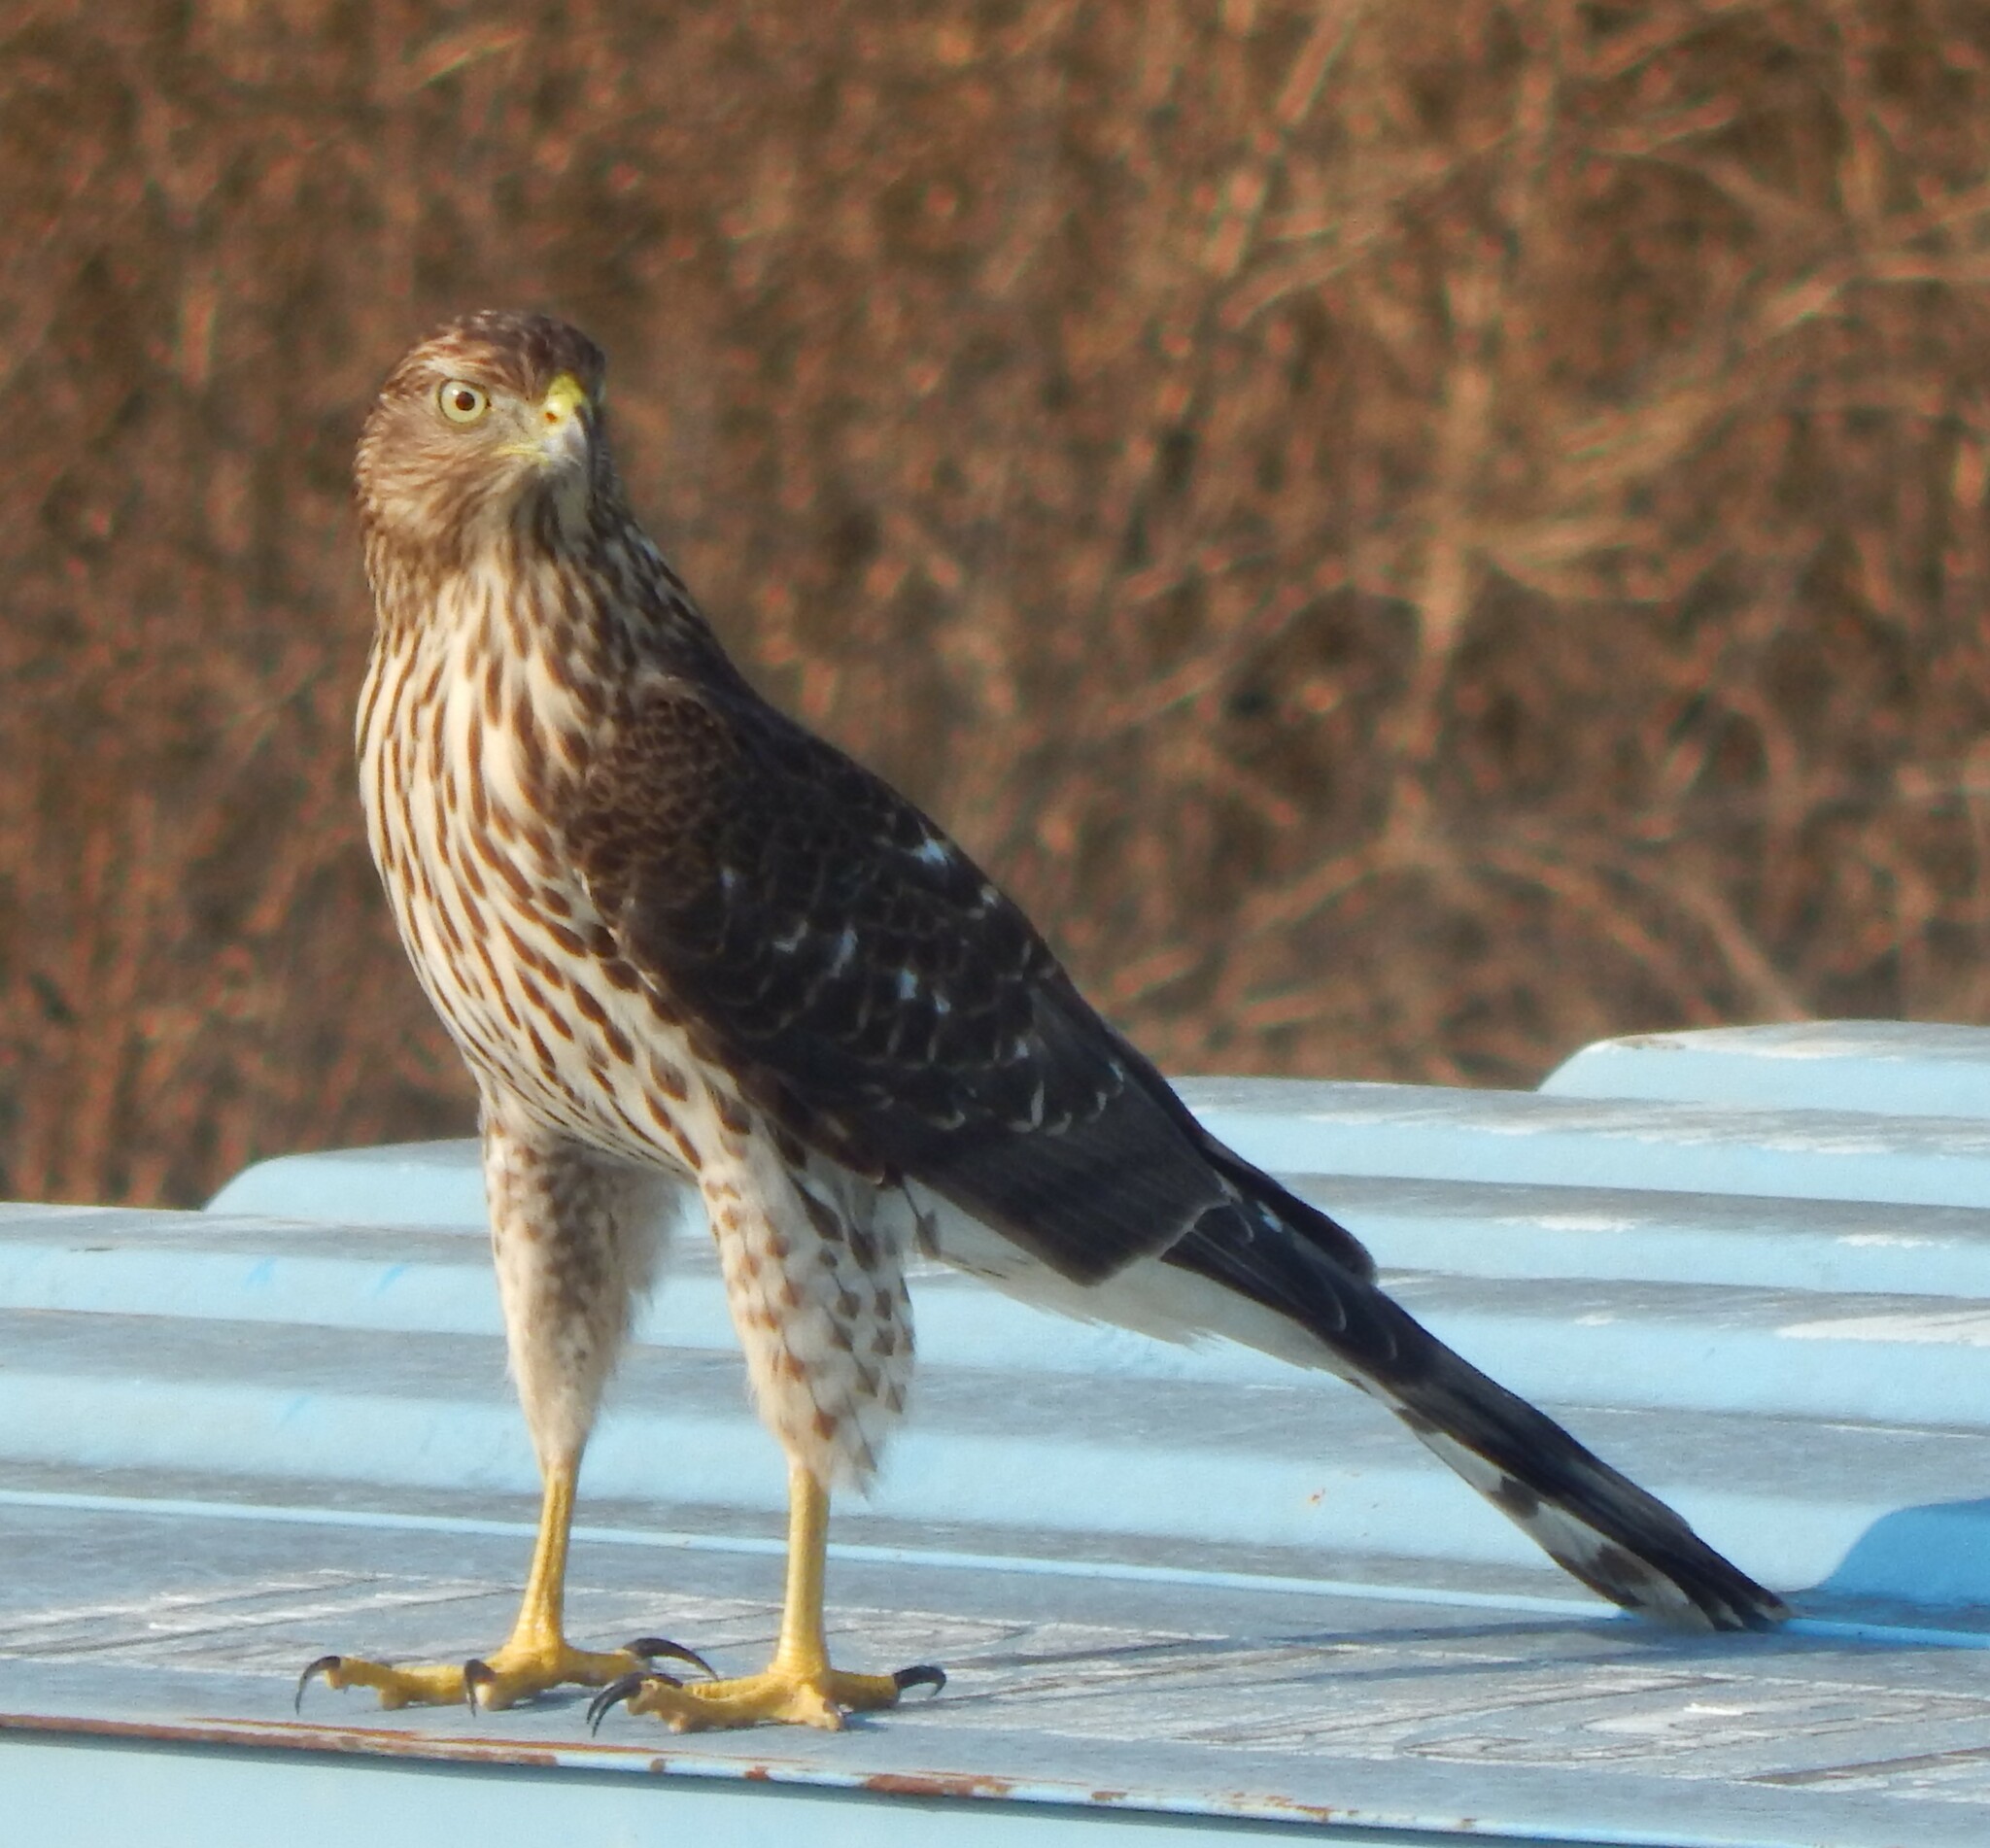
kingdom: Animalia
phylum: Chordata
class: Aves
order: Accipitriformes
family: Accipitridae
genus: Accipiter
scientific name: Accipiter cooperii
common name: Cooper's hawk
